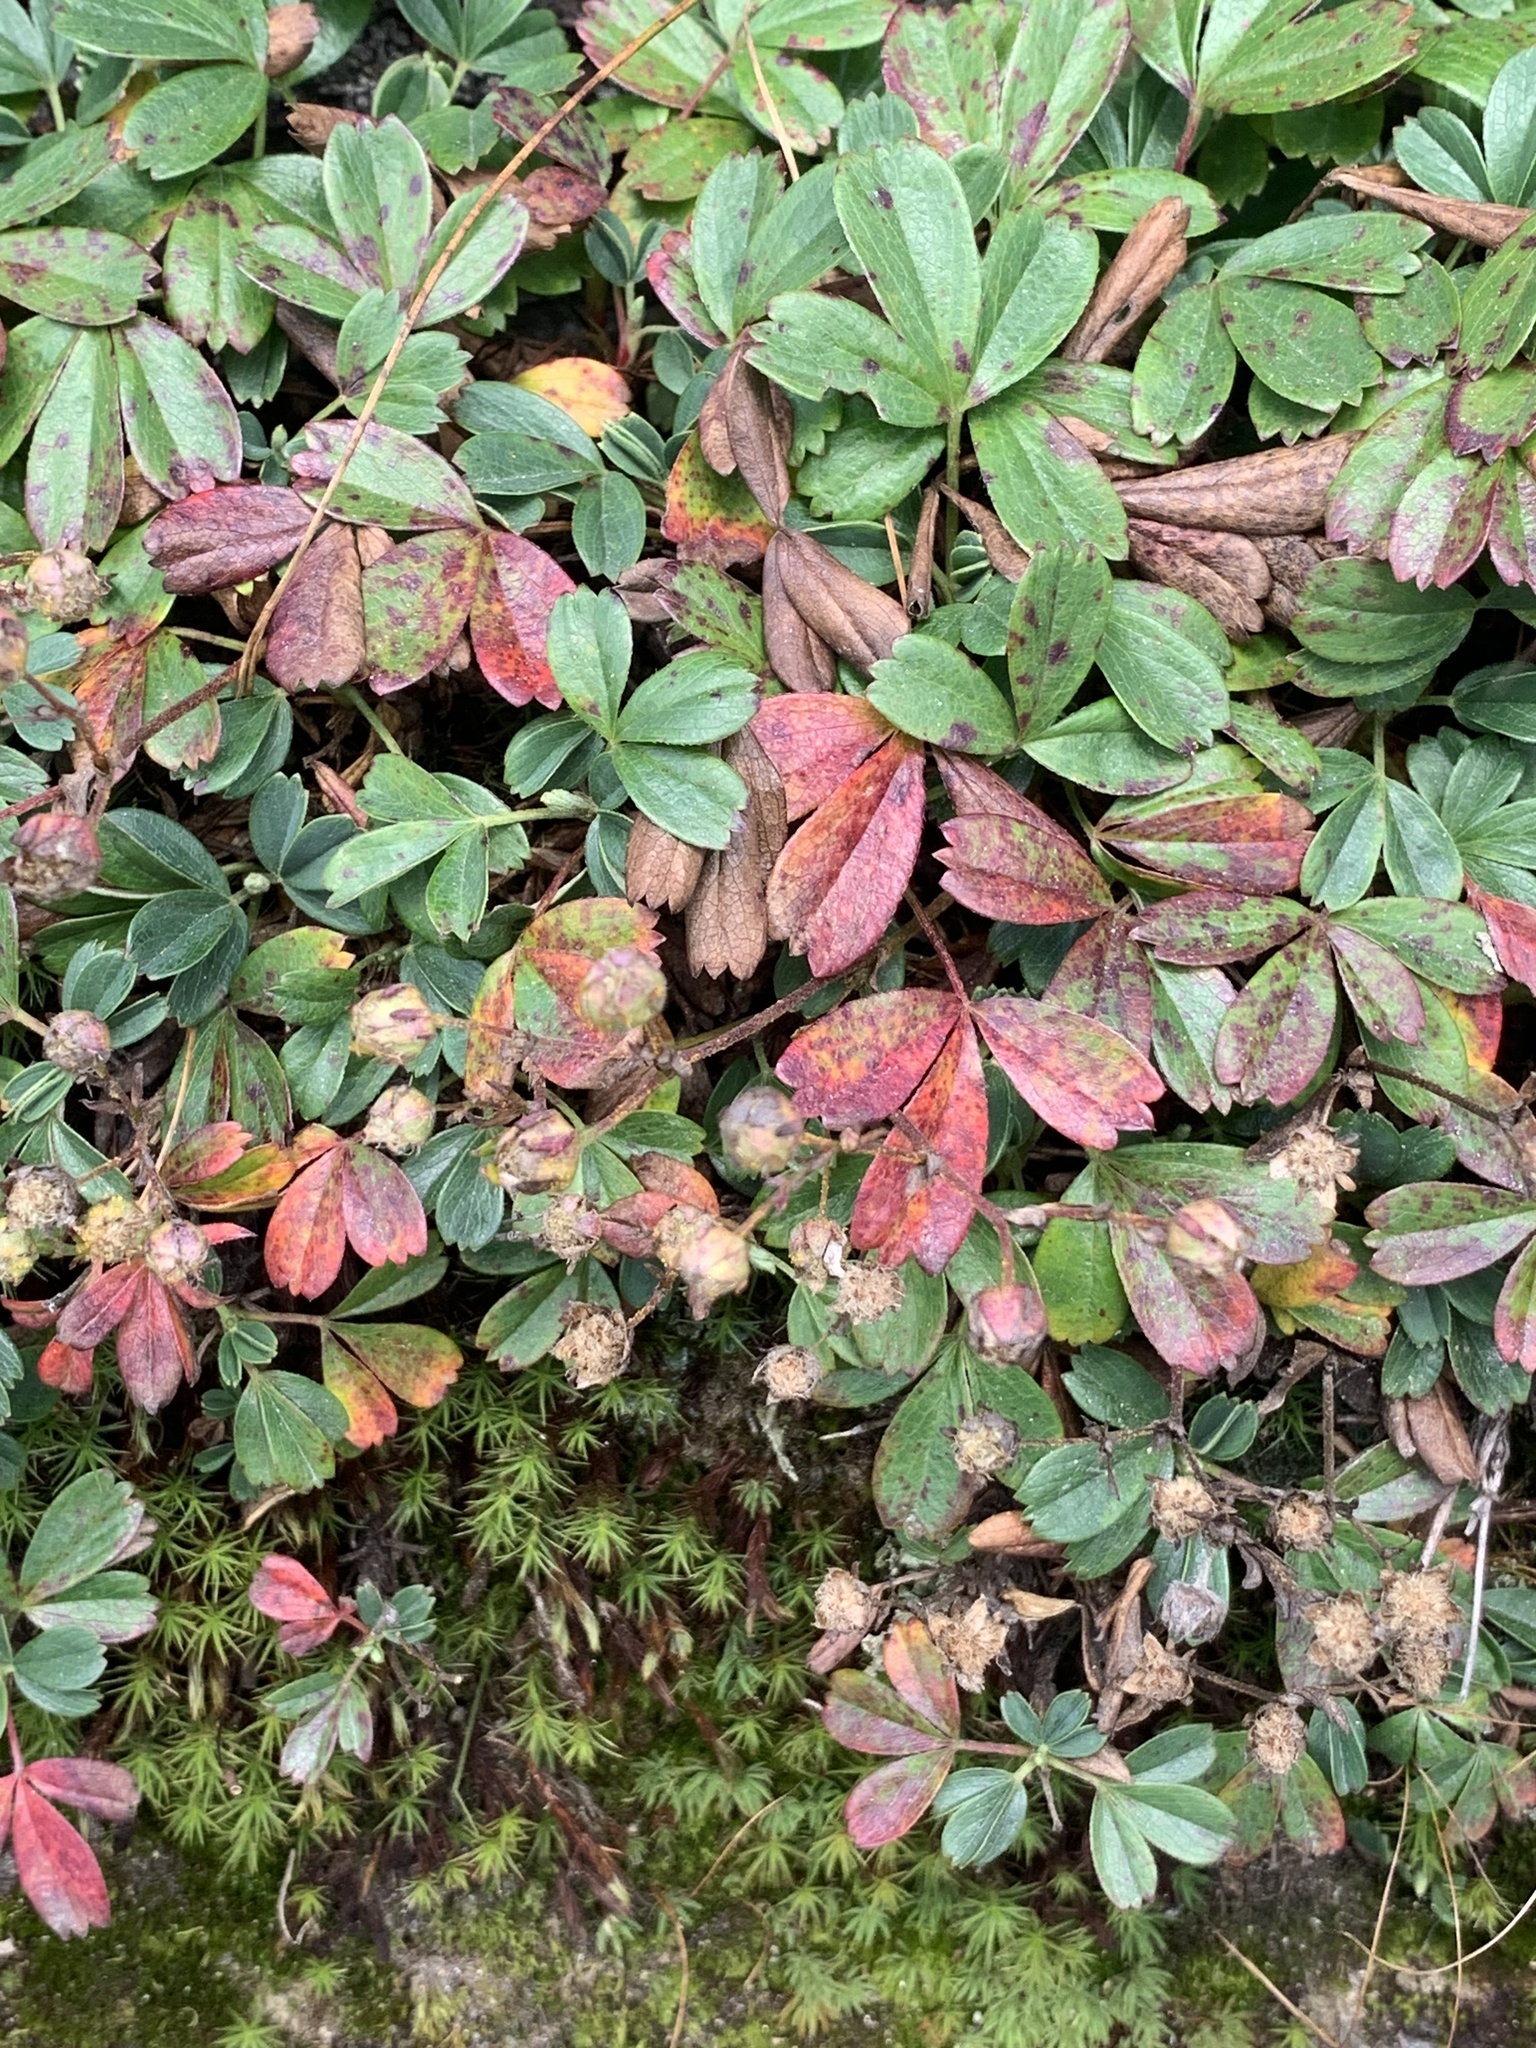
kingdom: Plantae
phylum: Tracheophyta
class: Magnoliopsida
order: Rosales
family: Rosaceae
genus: Sibbaldia
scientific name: Sibbaldia tridentata
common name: Three-toothed cinquefoil
